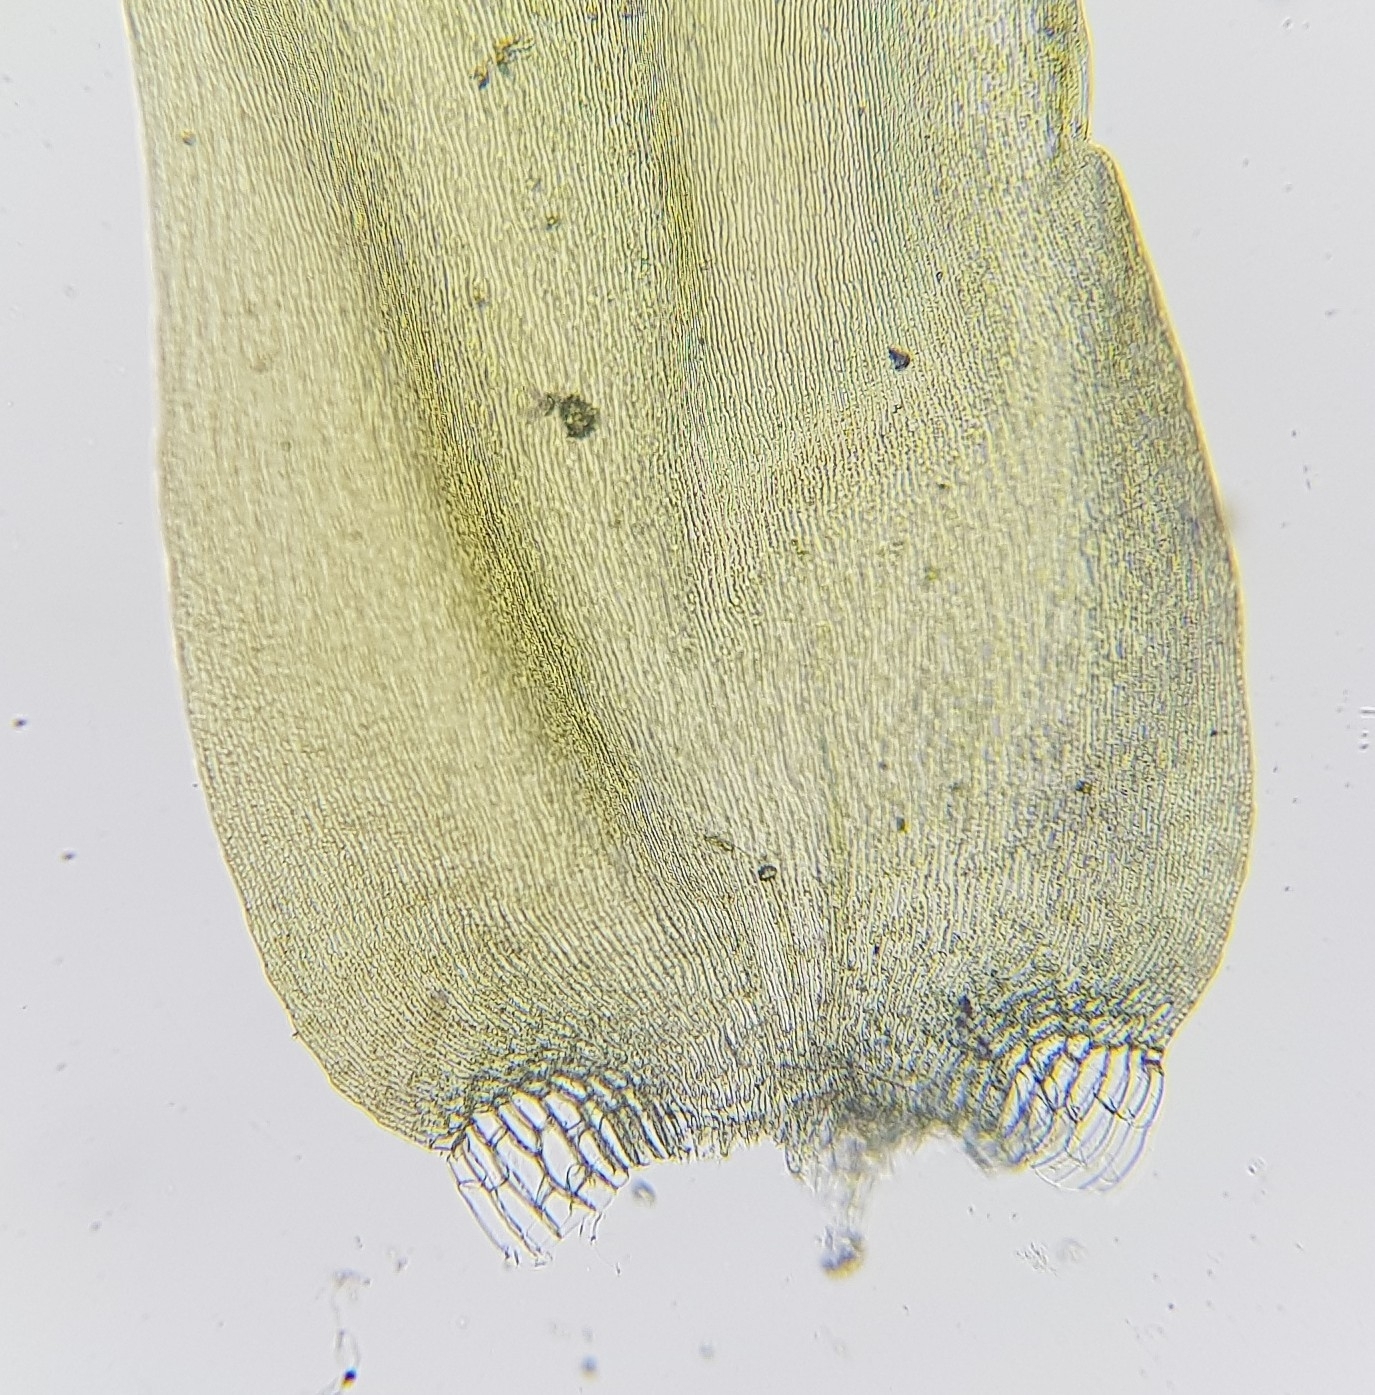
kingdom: Plantae
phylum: Bryophyta
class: Bryopsida
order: Hypnales
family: Pylaisiaceae
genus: Calliergonella
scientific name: Calliergonella cuspidata
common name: Common large wetland moss
